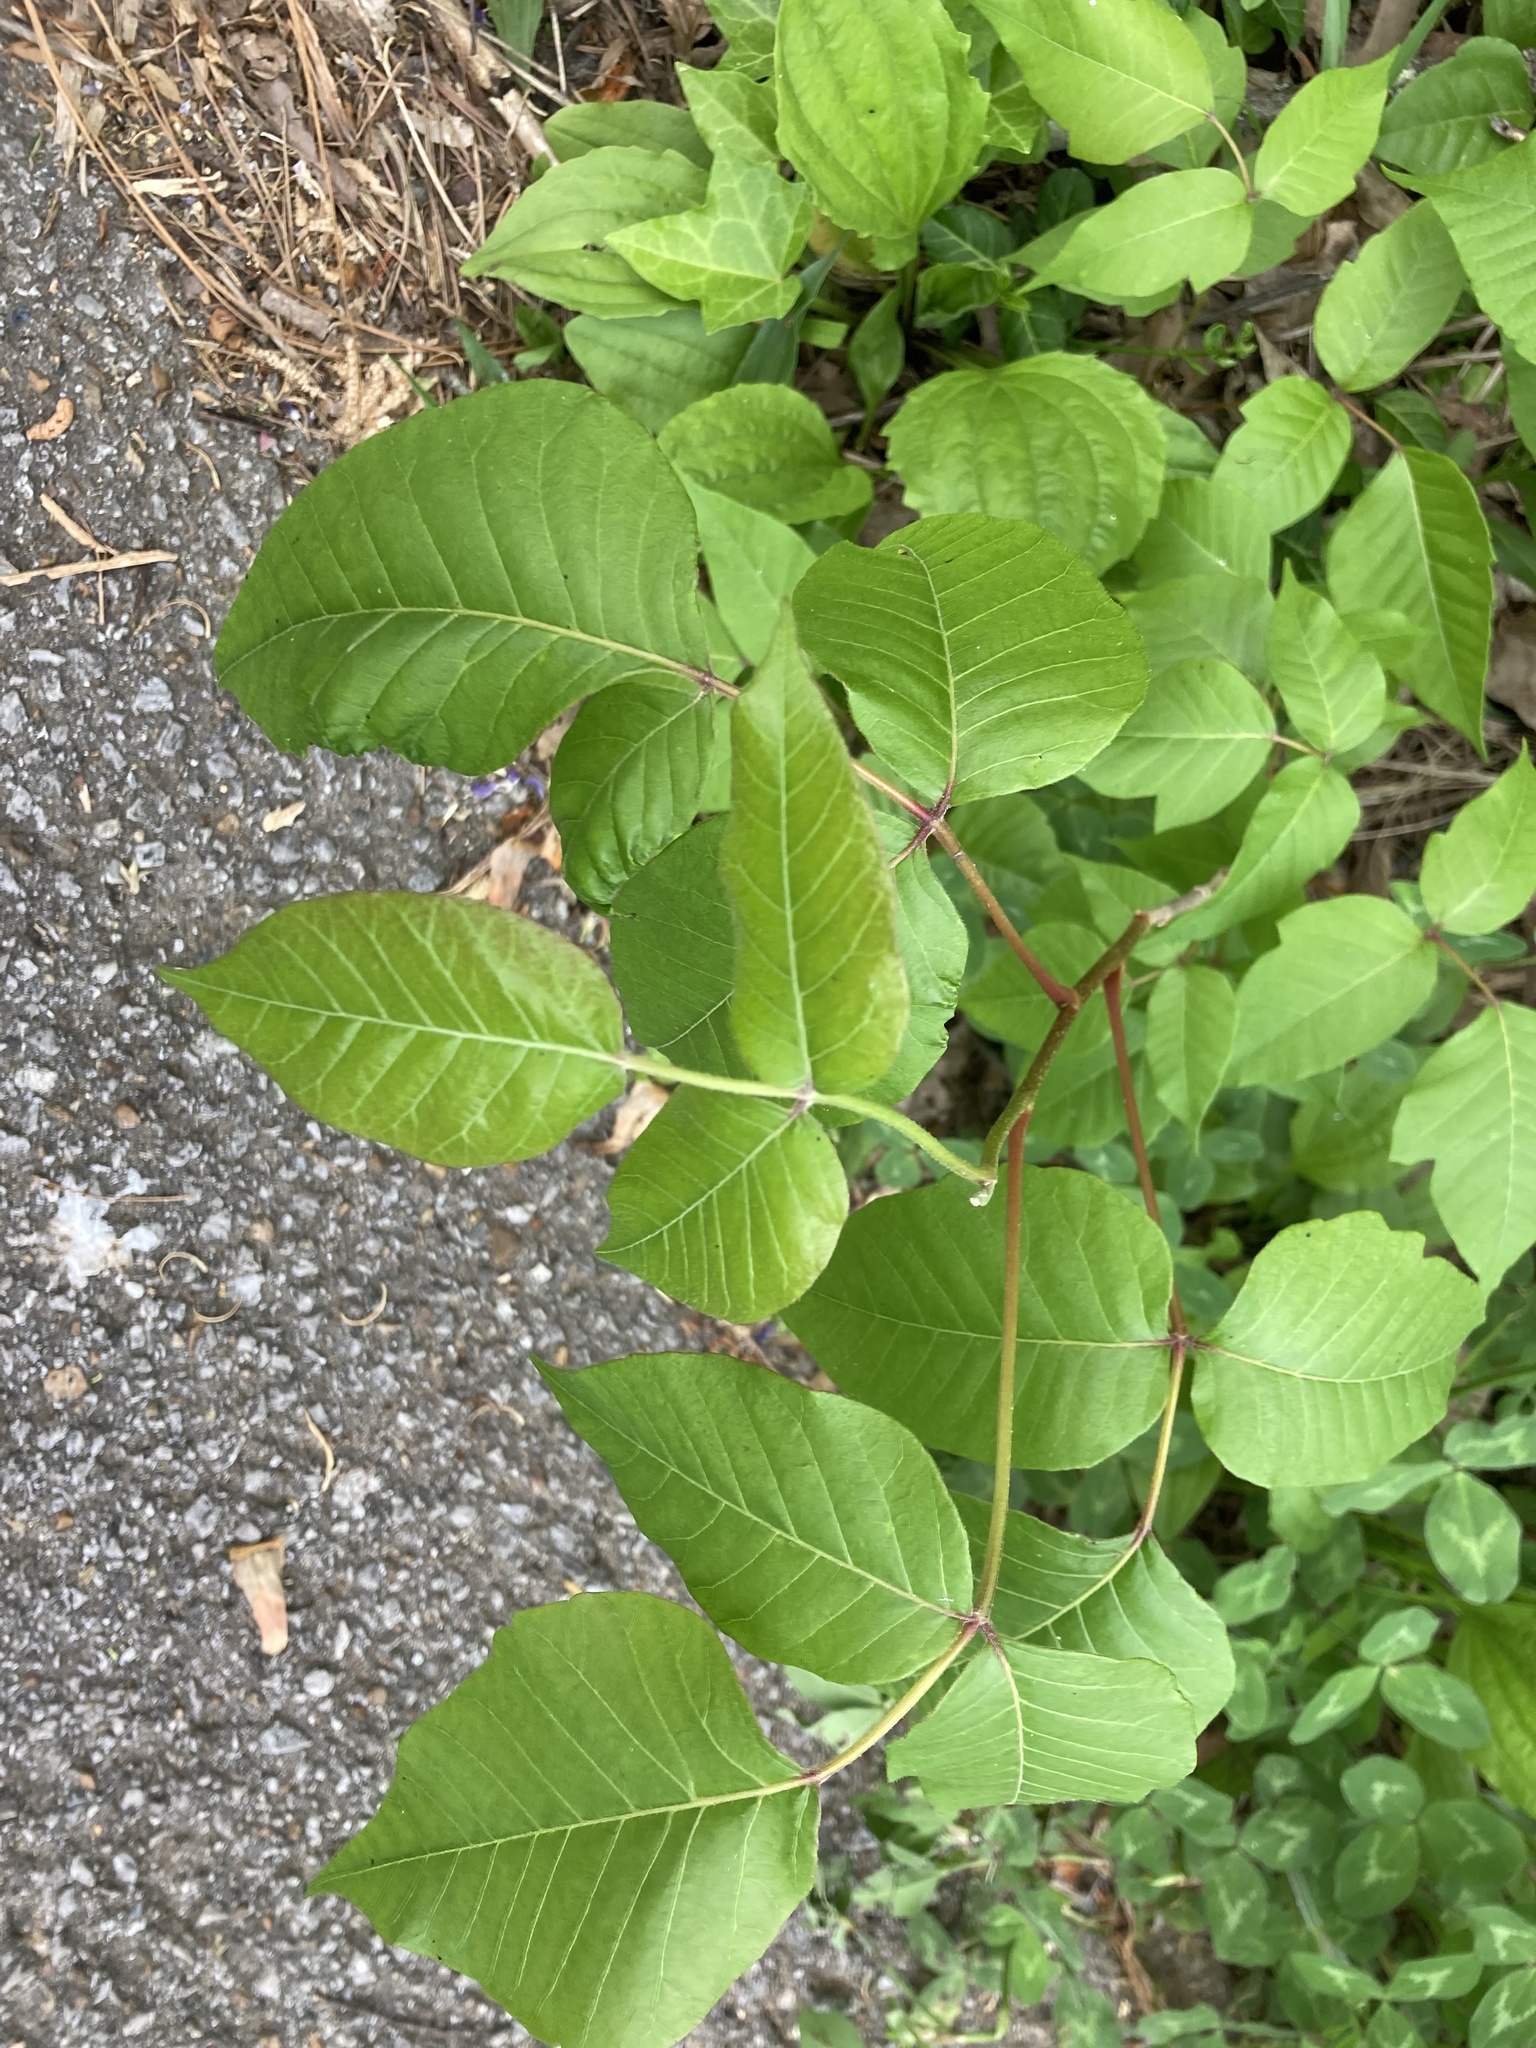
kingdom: Plantae
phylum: Tracheophyta
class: Magnoliopsida
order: Sapindales
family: Anacardiaceae
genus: Toxicodendron
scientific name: Toxicodendron radicans
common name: Poison ivy
